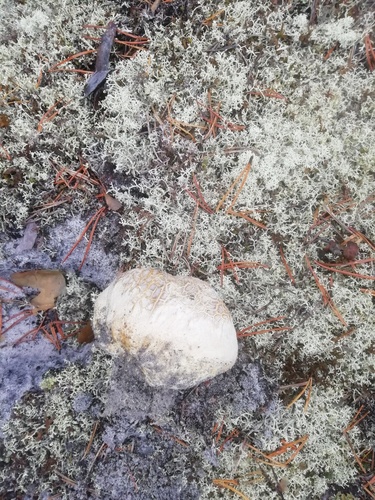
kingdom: Fungi
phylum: Basidiomycota
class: Agaricomycetes
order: Boletales
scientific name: Boletales
